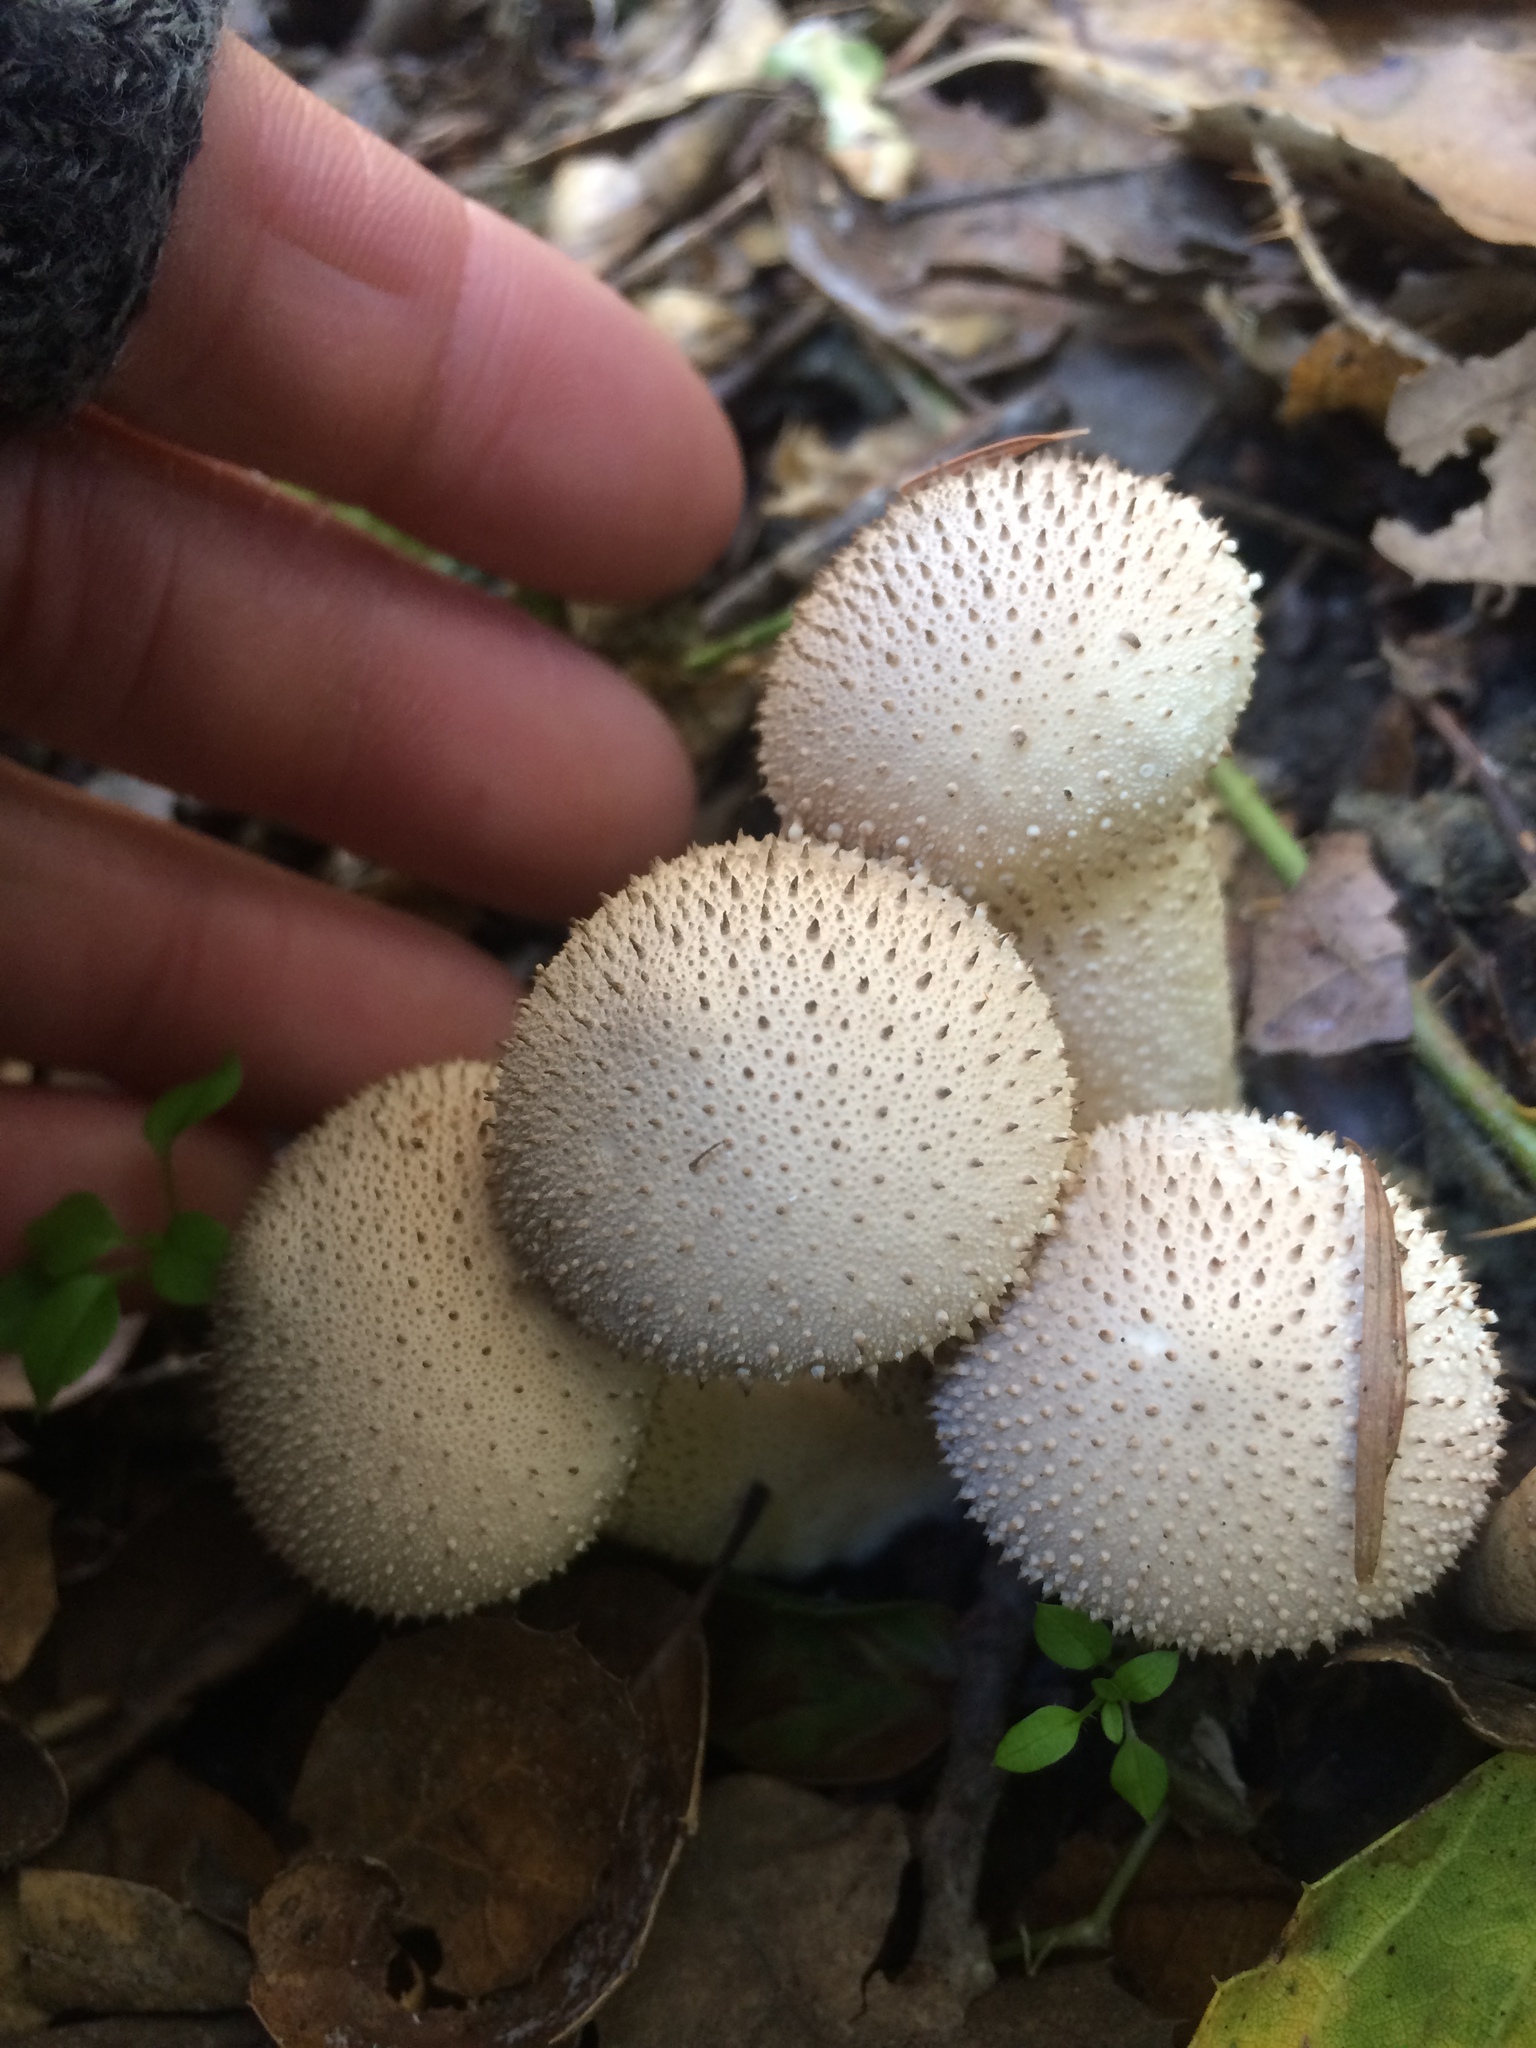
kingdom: Fungi
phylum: Basidiomycota
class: Agaricomycetes
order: Agaricales
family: Lycoperdaceae
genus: Lycoperdon
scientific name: Lycoperdon perlatum
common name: Common puffball
